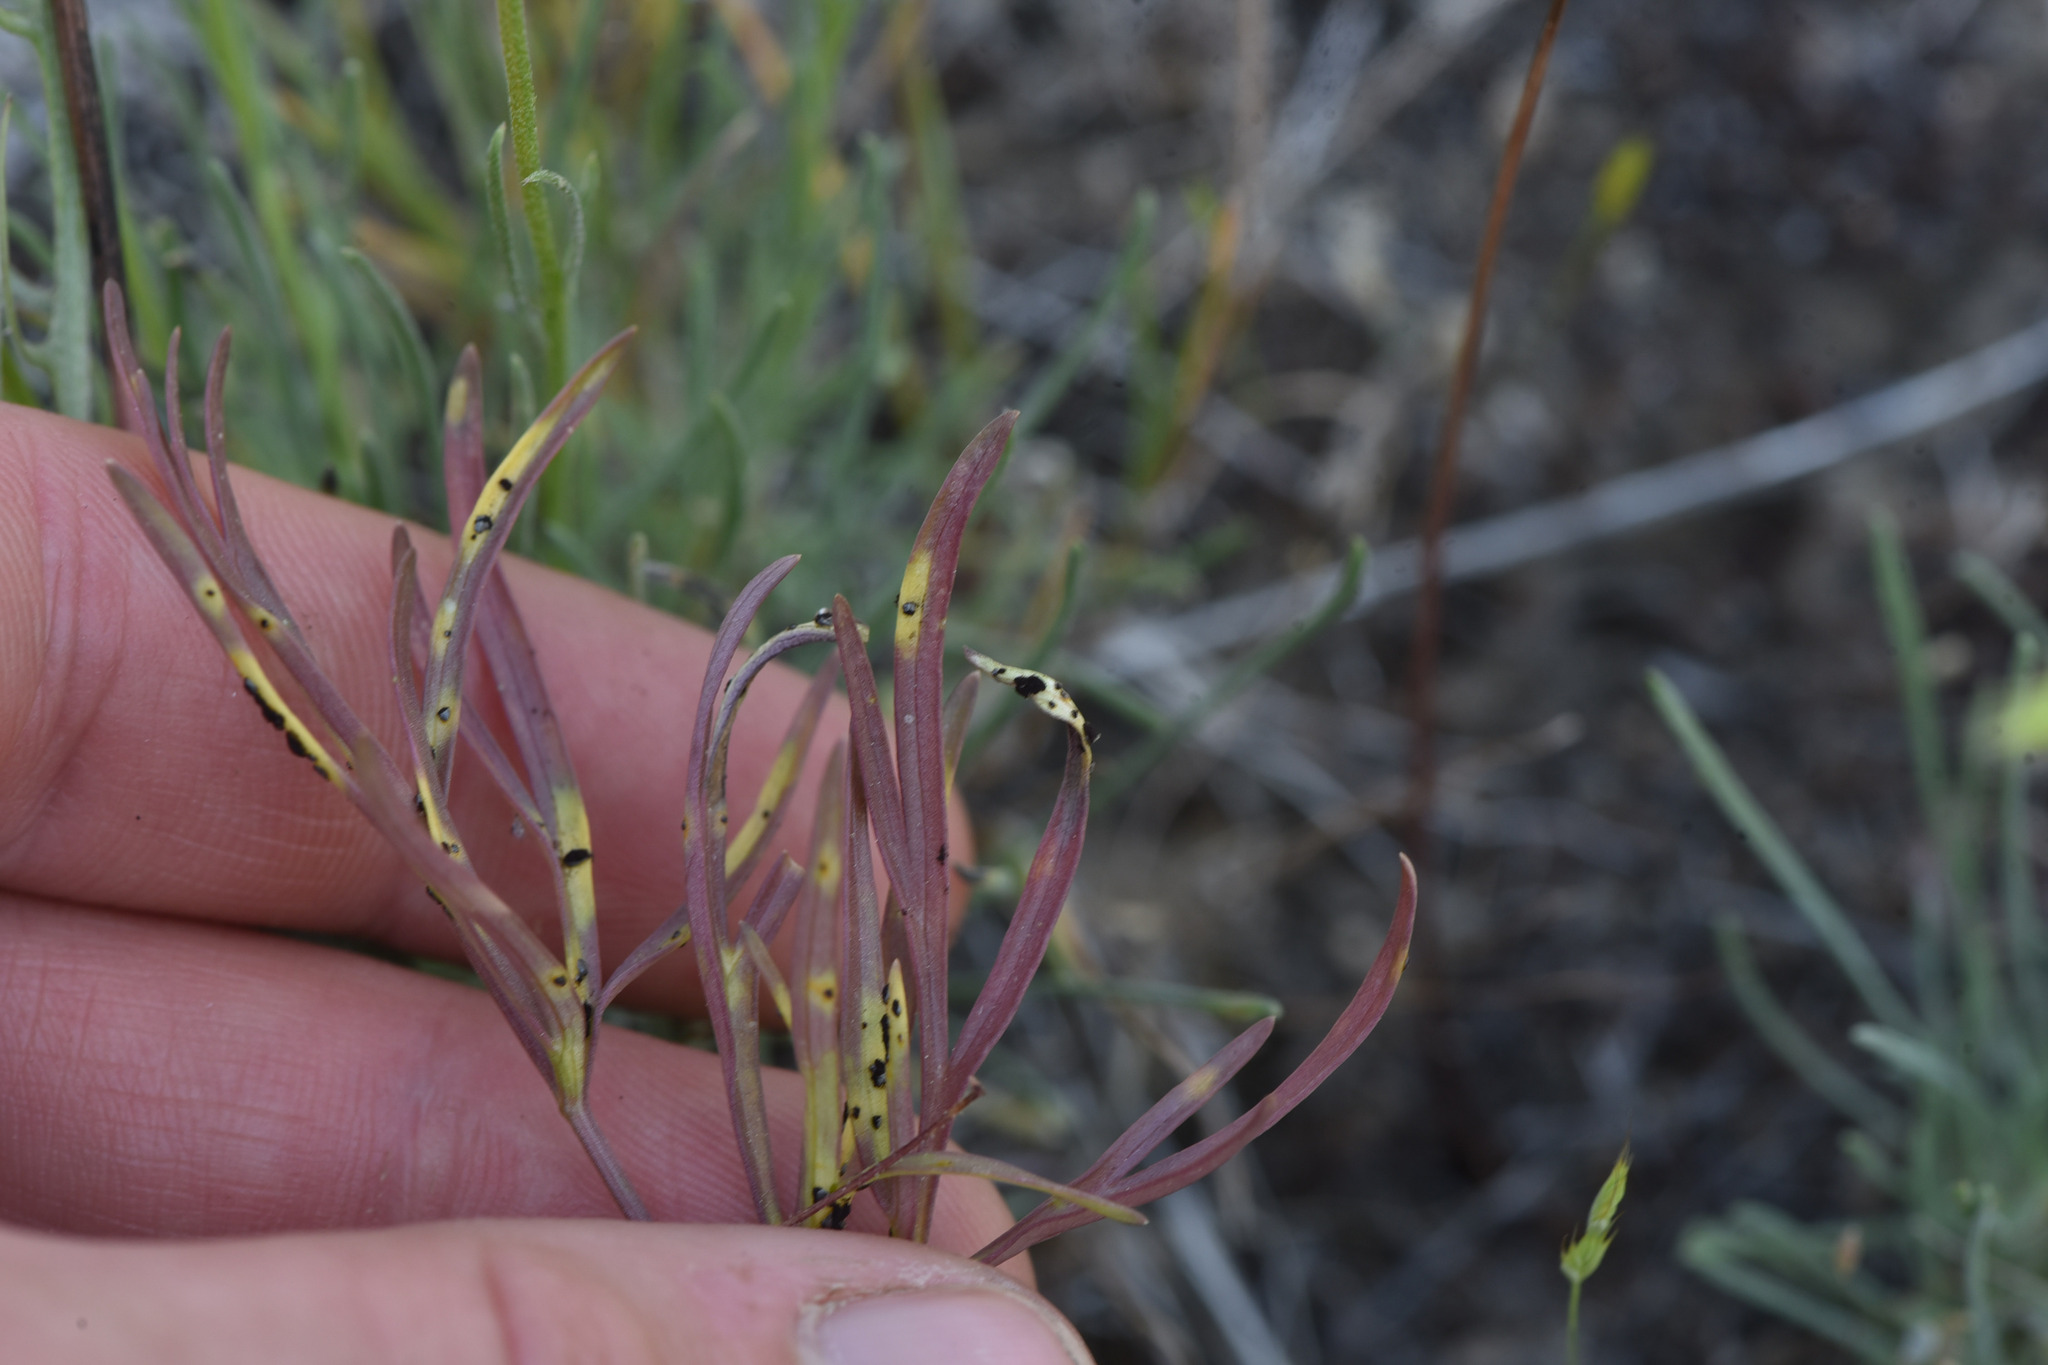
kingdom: Fungi
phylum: Basidiomycota
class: Pucciniomycetes
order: Pucciniales
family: Pucciniaceae
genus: Puccinia
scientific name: Puccinia jonesii
